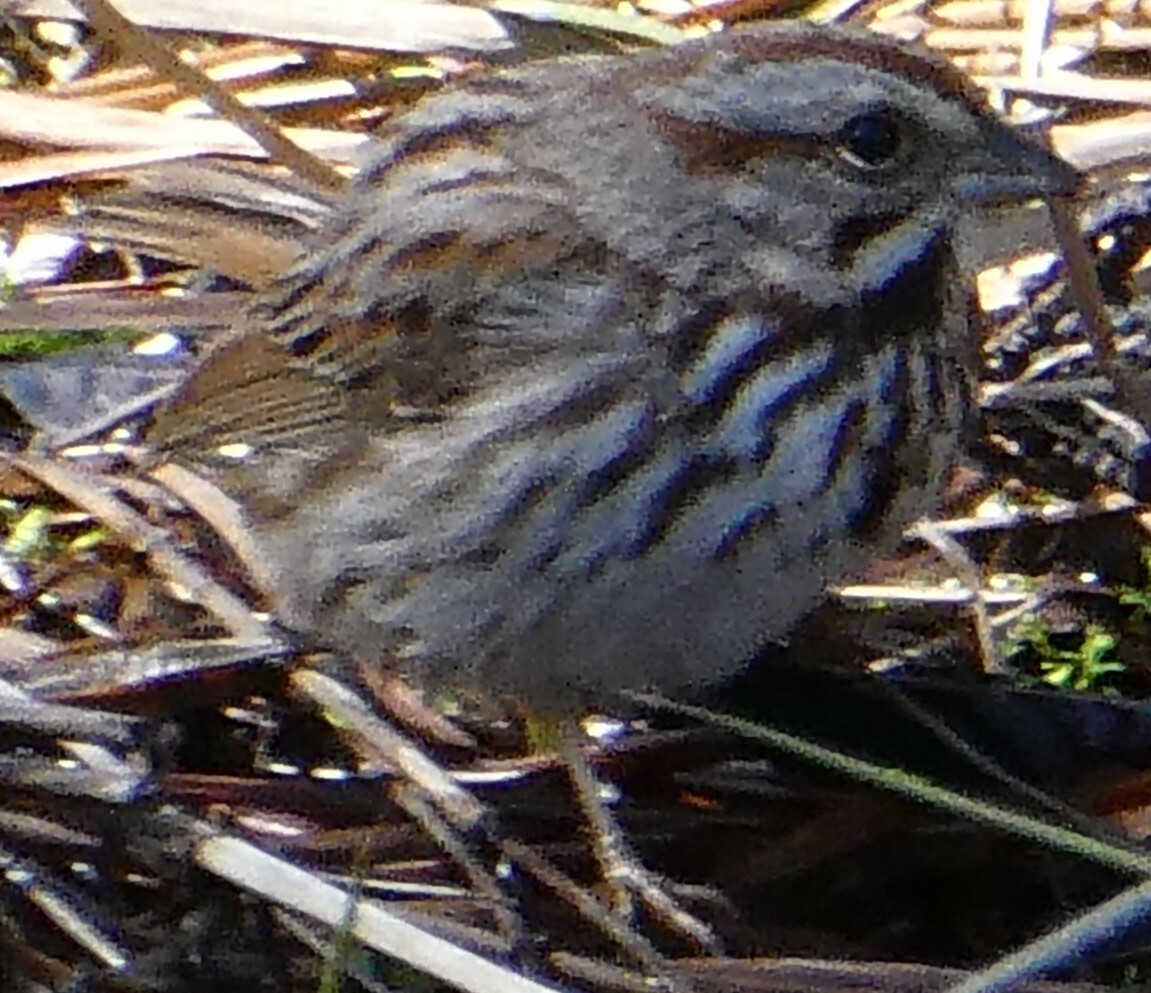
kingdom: Animalia
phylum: Chordata
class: Aves
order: Passeriformes
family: Passerellidae
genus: Melospiza
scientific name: Melospiza melodia
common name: Song sparrow
